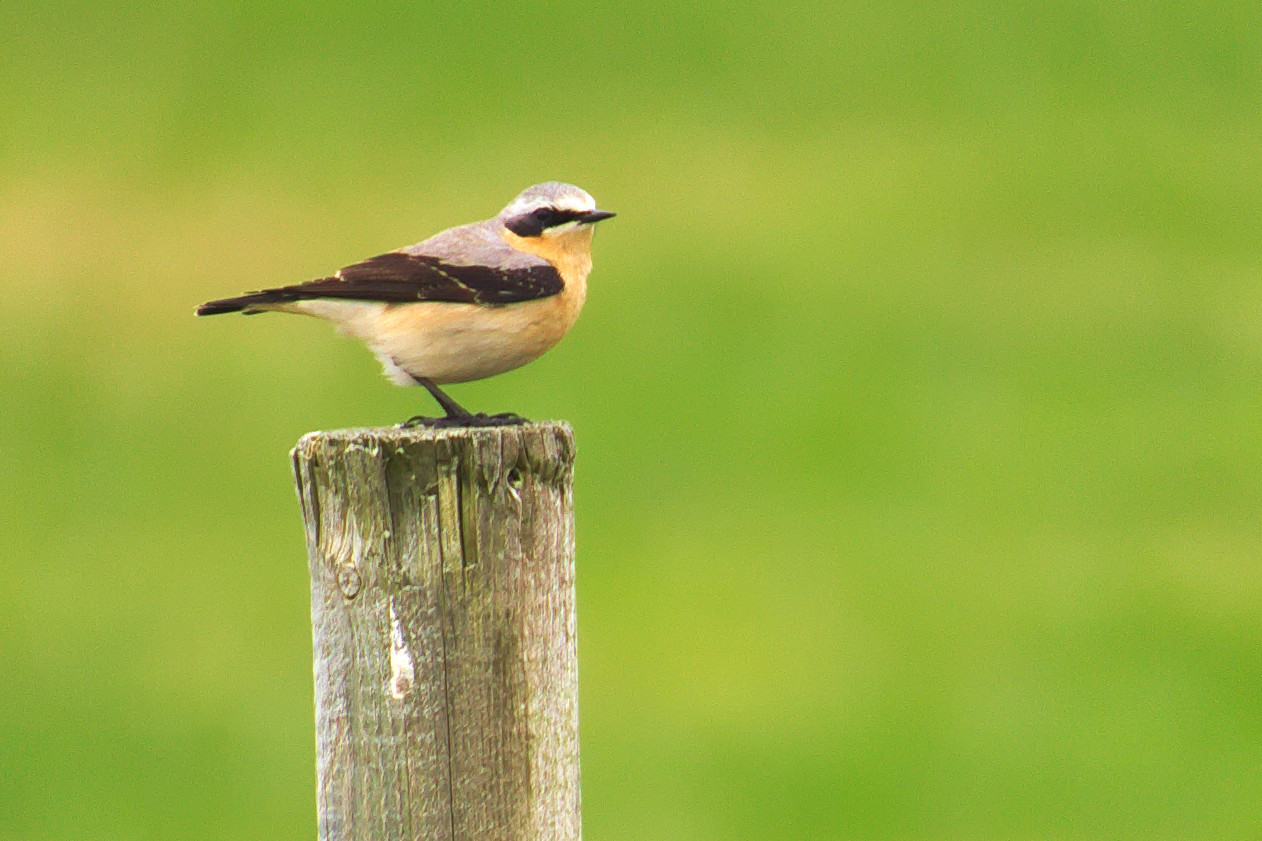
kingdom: Animalia
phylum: Chordata
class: Aves
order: Passeriformes
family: Muscicapidae
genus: Oenanthe
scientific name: Oenanthe oenanthe
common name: Northern wheatear
